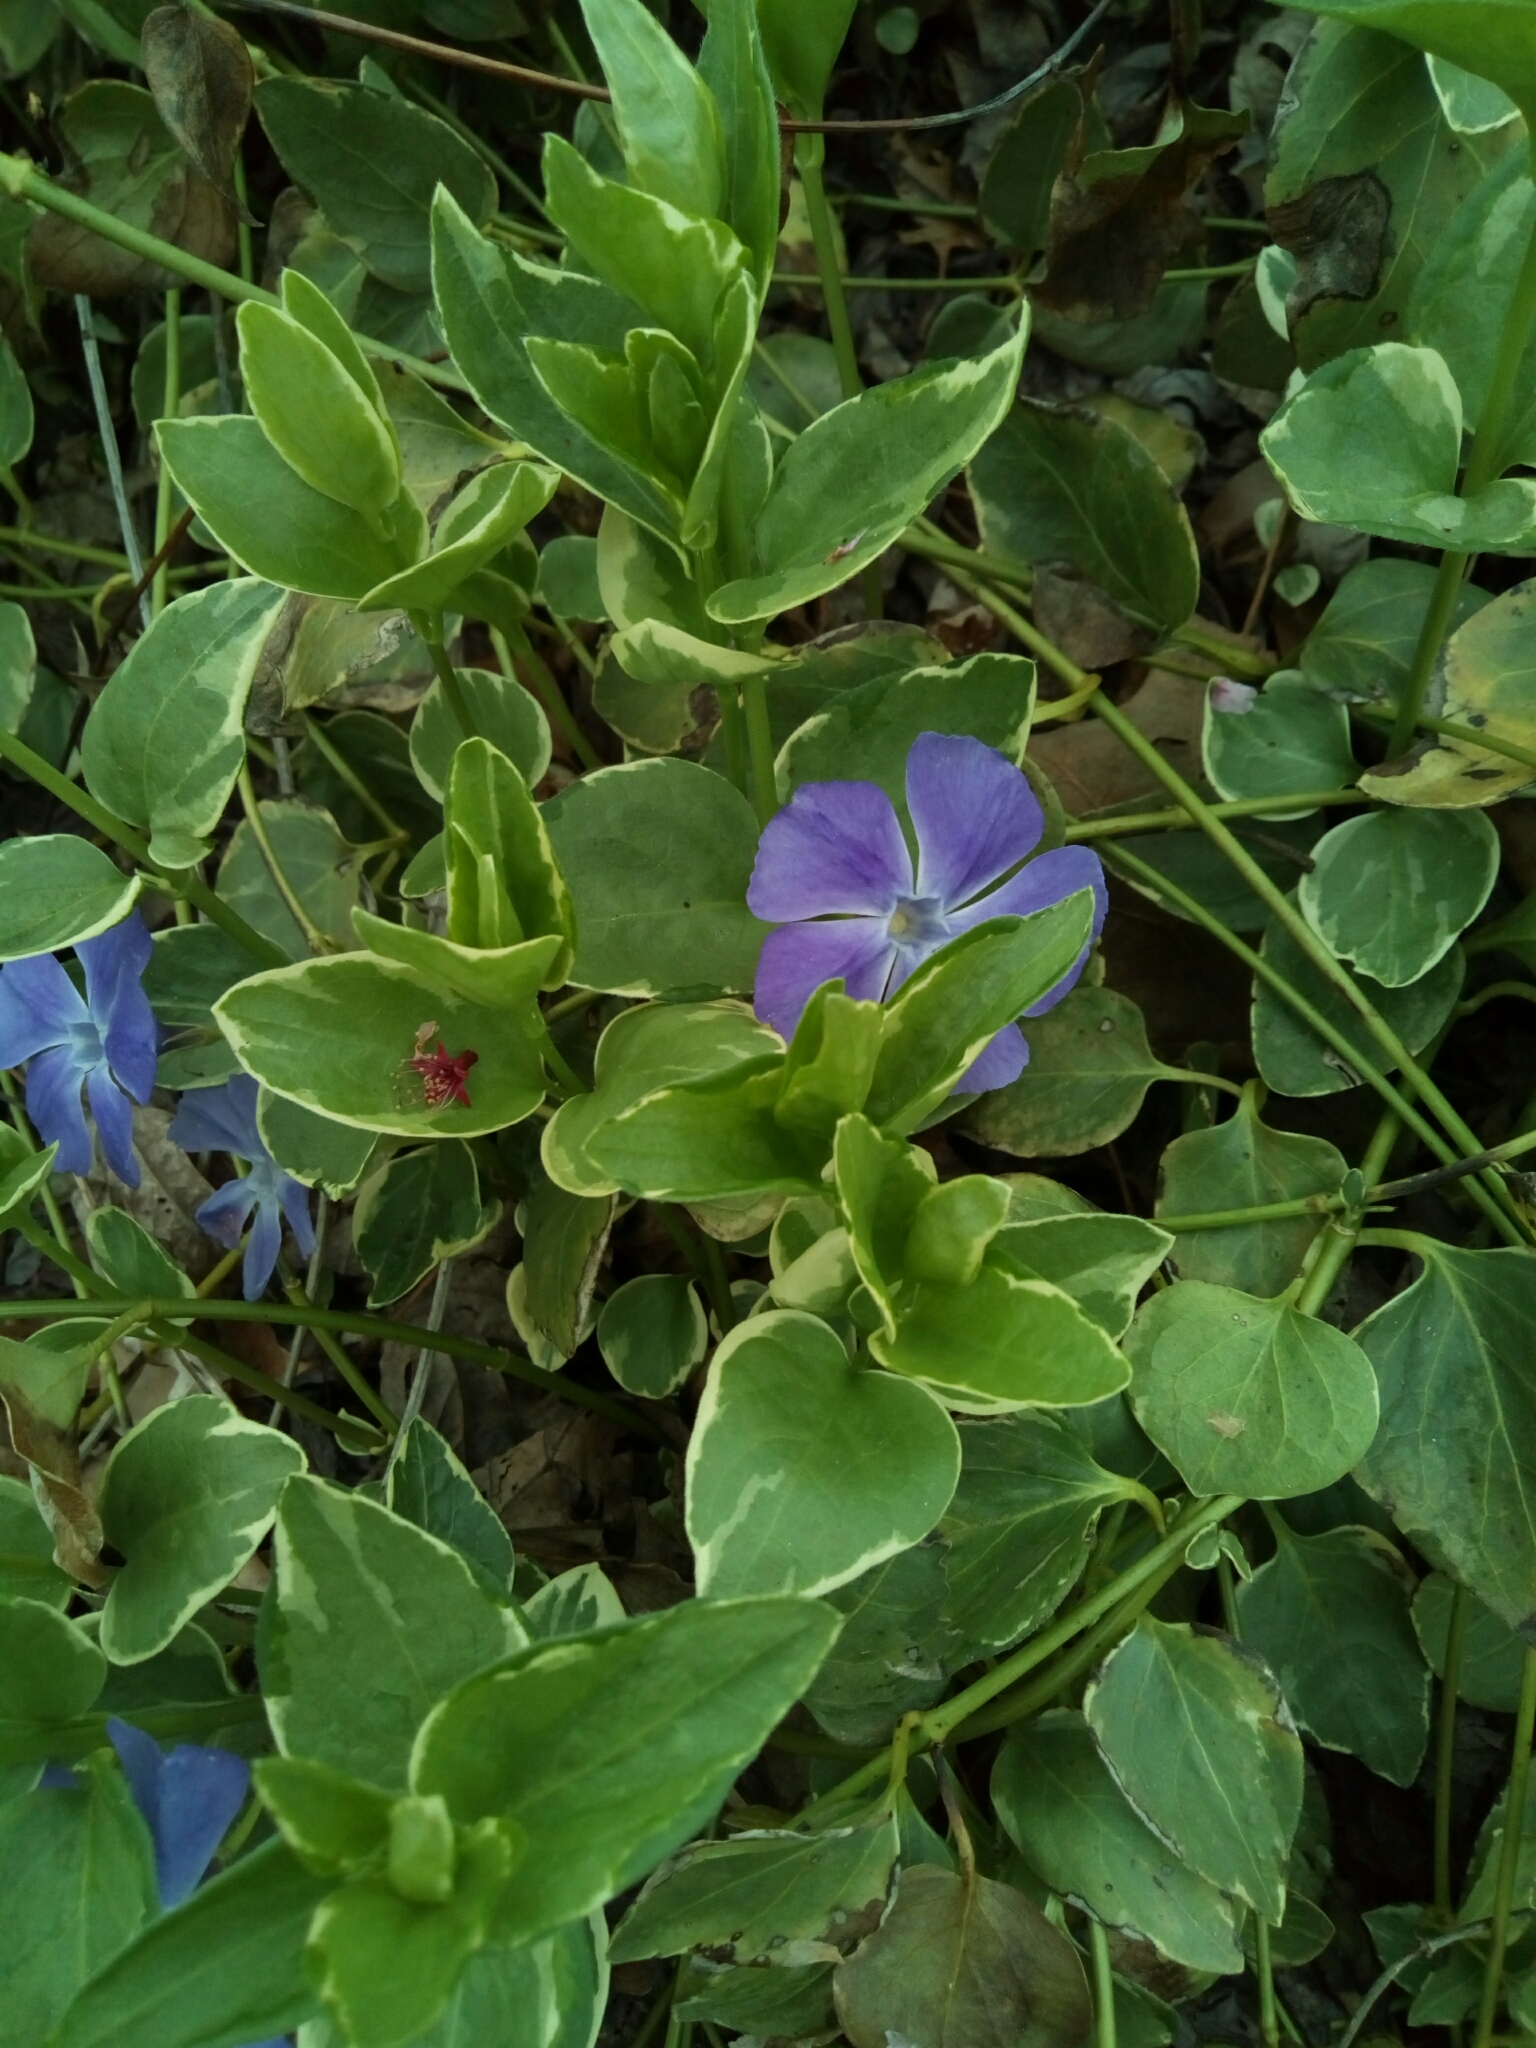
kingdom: Plantae
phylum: Tracheophyta
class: Magnoliopsida
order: Gentianales
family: Apocynaceae
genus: Vinca
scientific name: Vinca major
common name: Greater periwinkle
